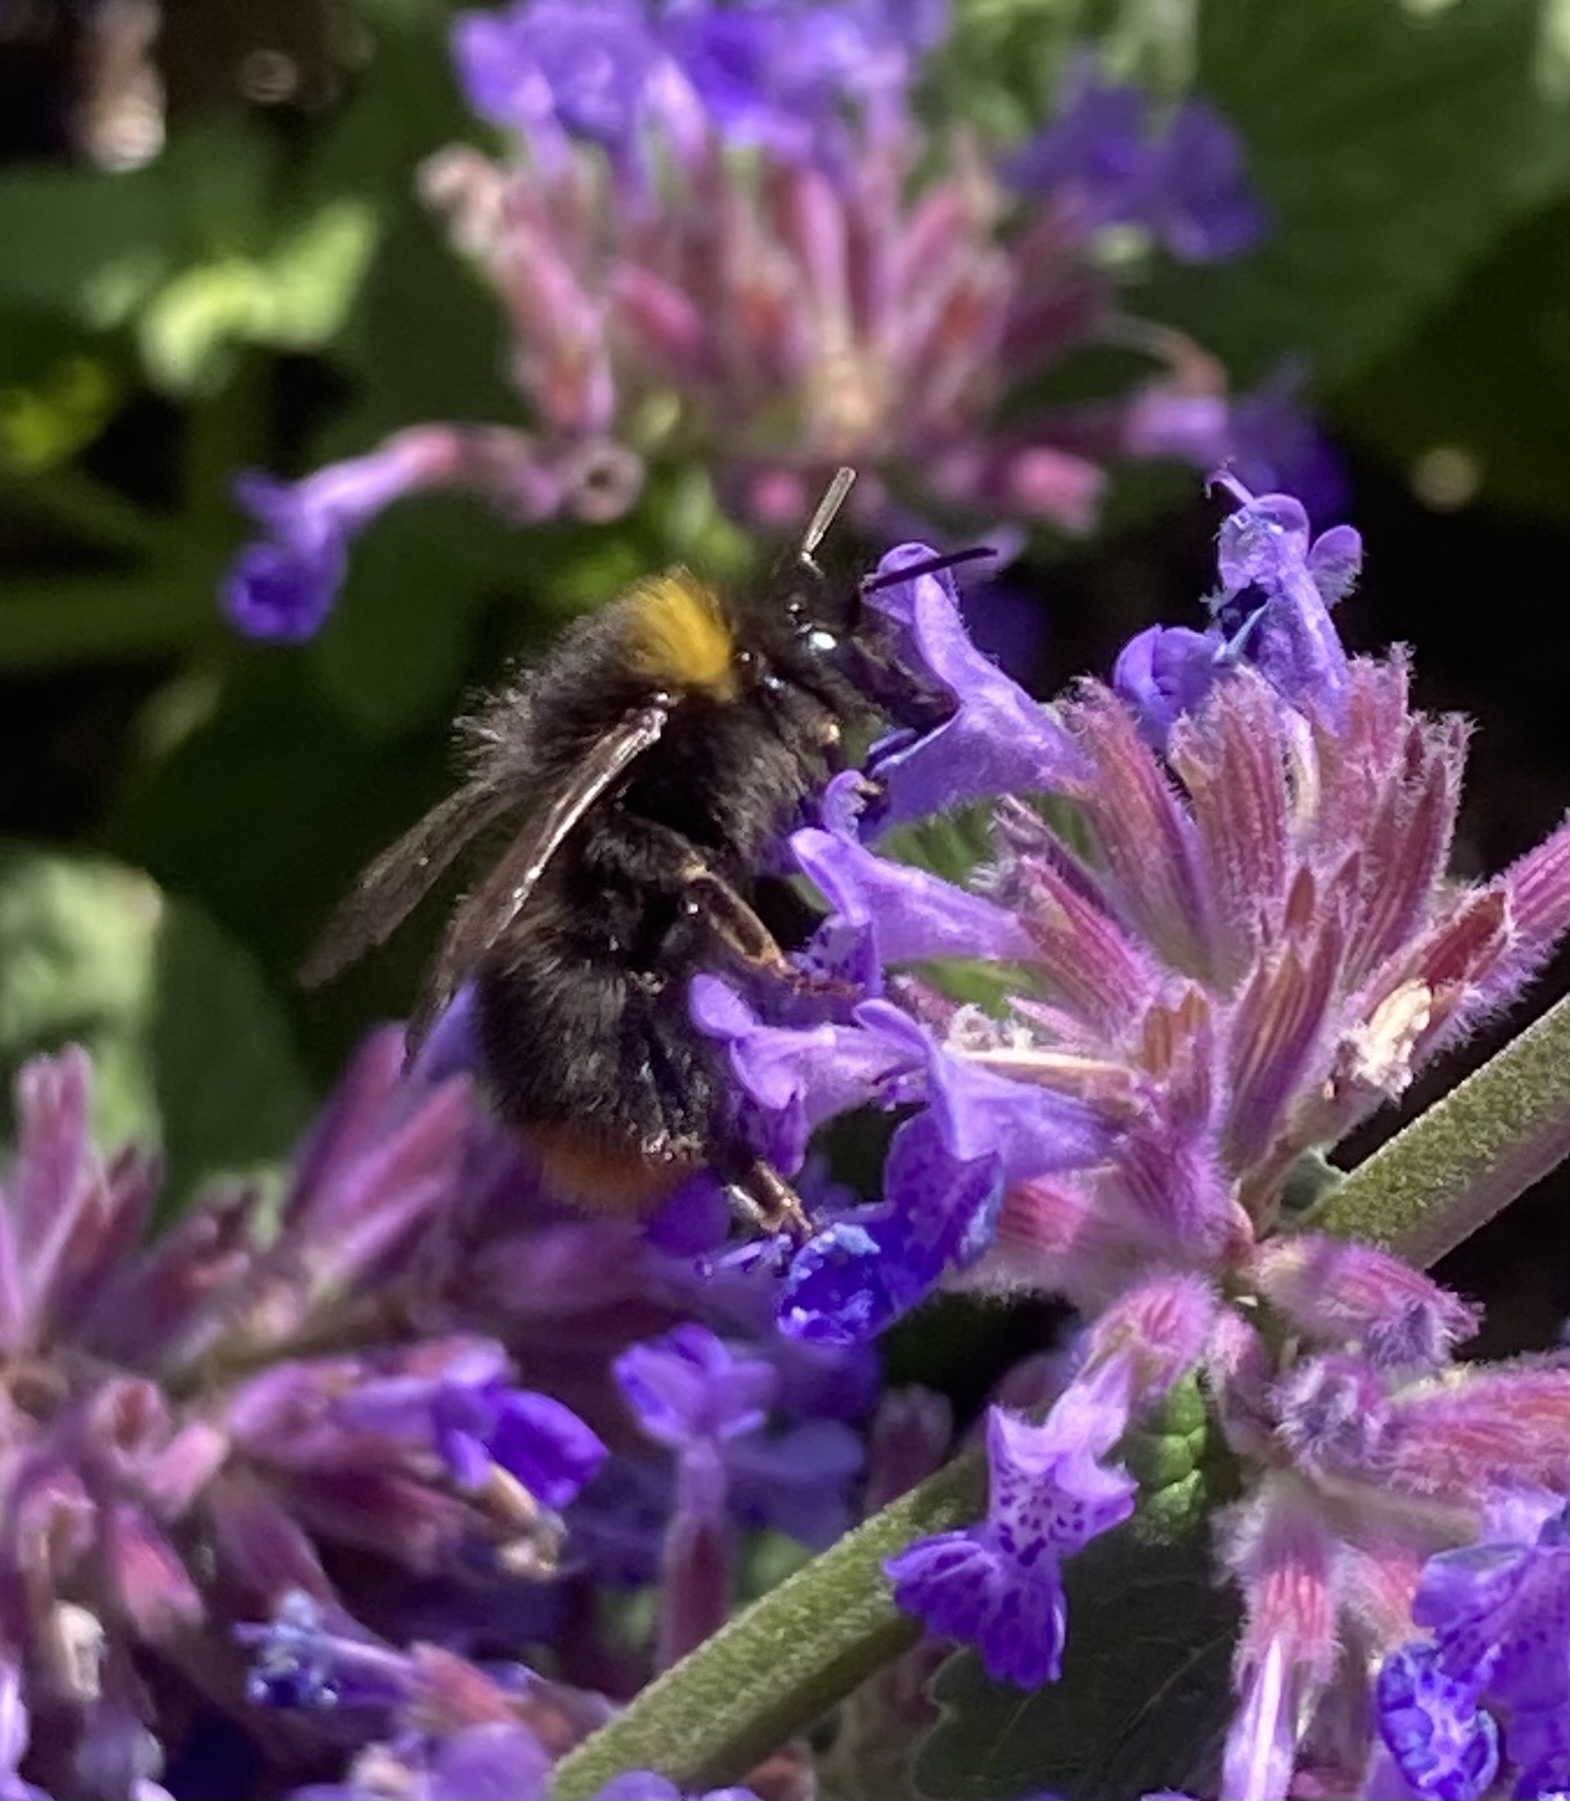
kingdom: Animalia
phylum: Arthropoda
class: Insecta
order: Hymenoptera
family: Apidae
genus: Bombus
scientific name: Bombus pratorum
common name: Early humble-bee
